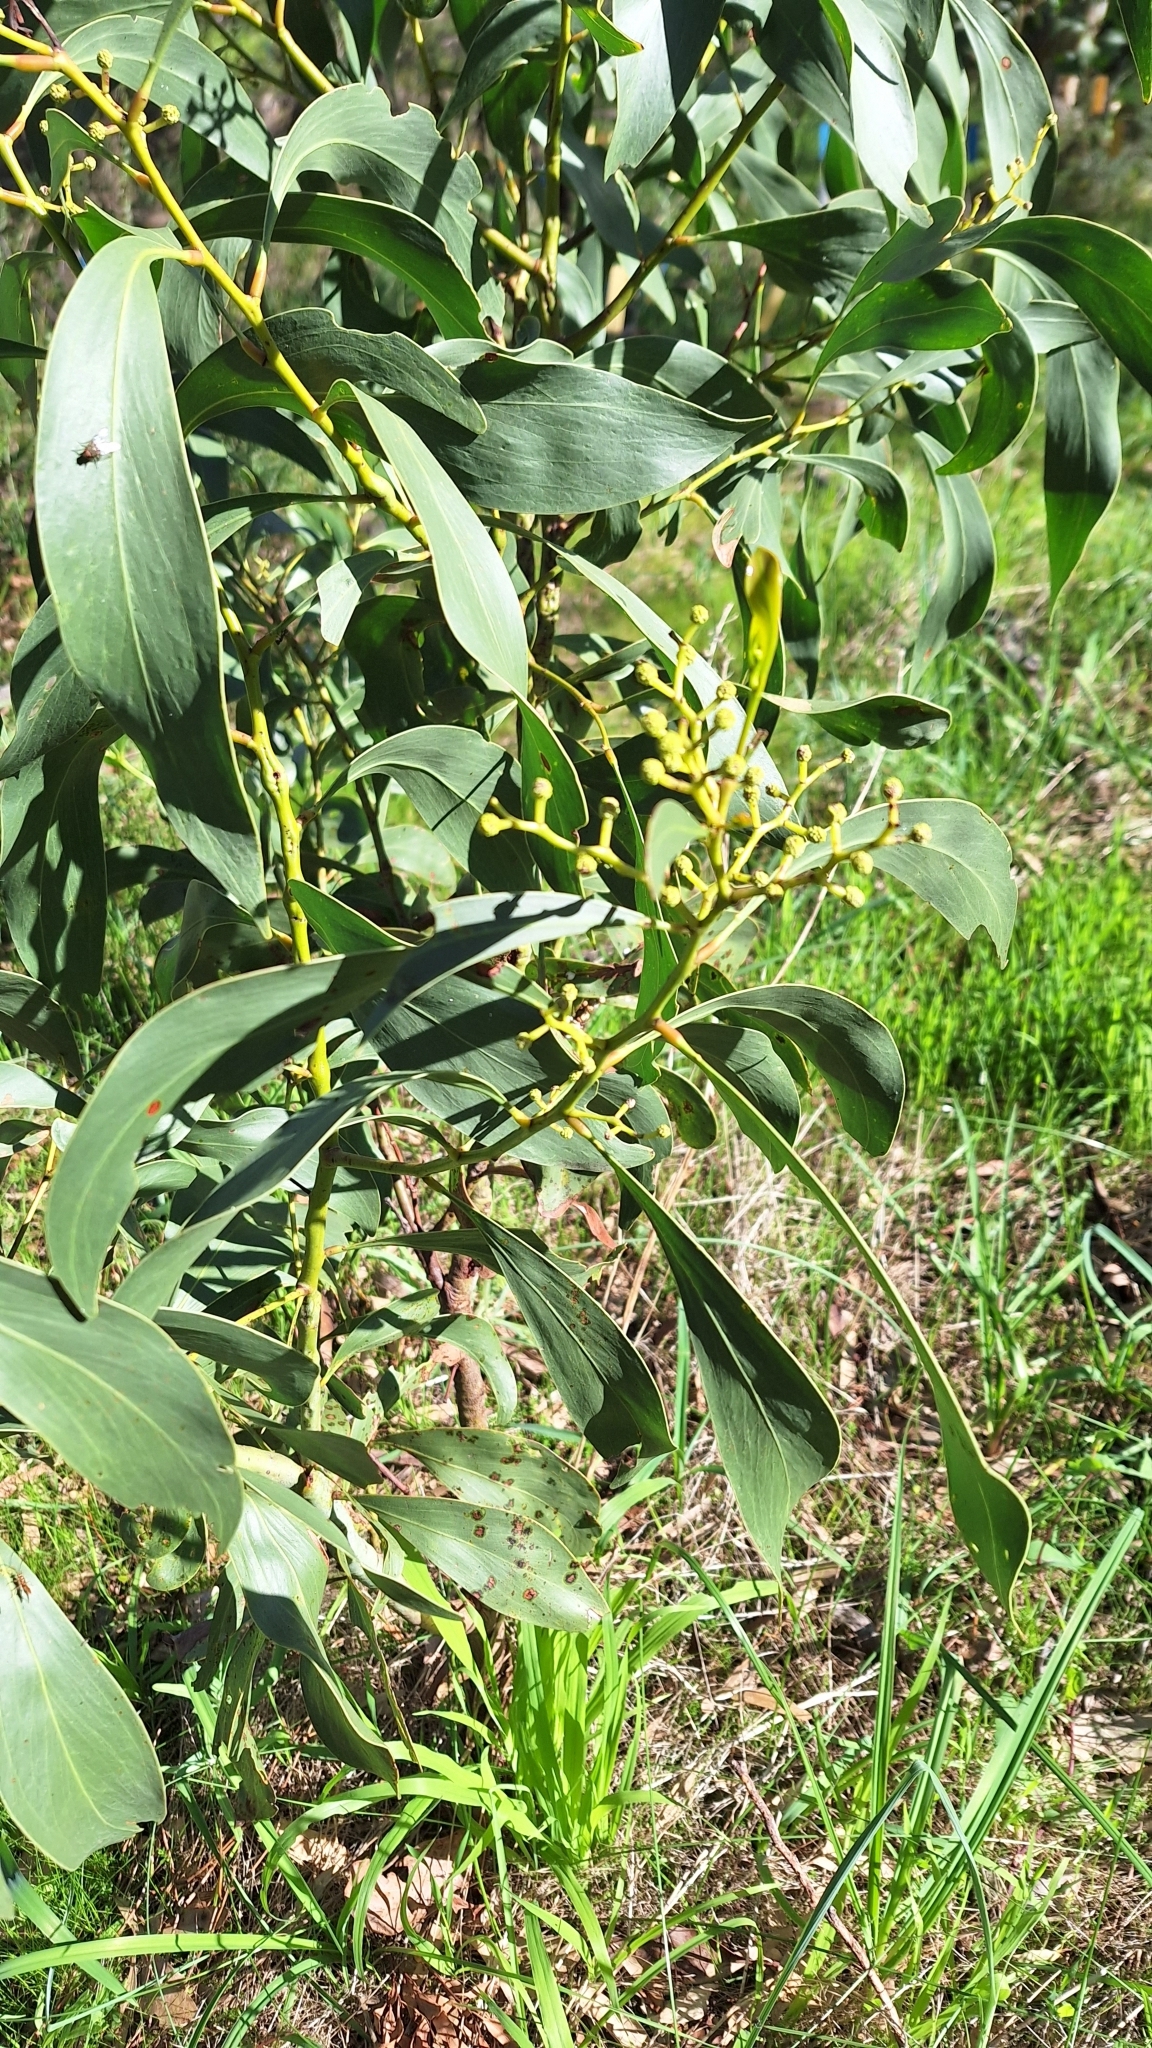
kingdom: Plantae
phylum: Tracheophyta
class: Magnoliopsida
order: Fabales
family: Fabaceae
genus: Acacia
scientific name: Acacia pycnantha
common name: Golden wattle
